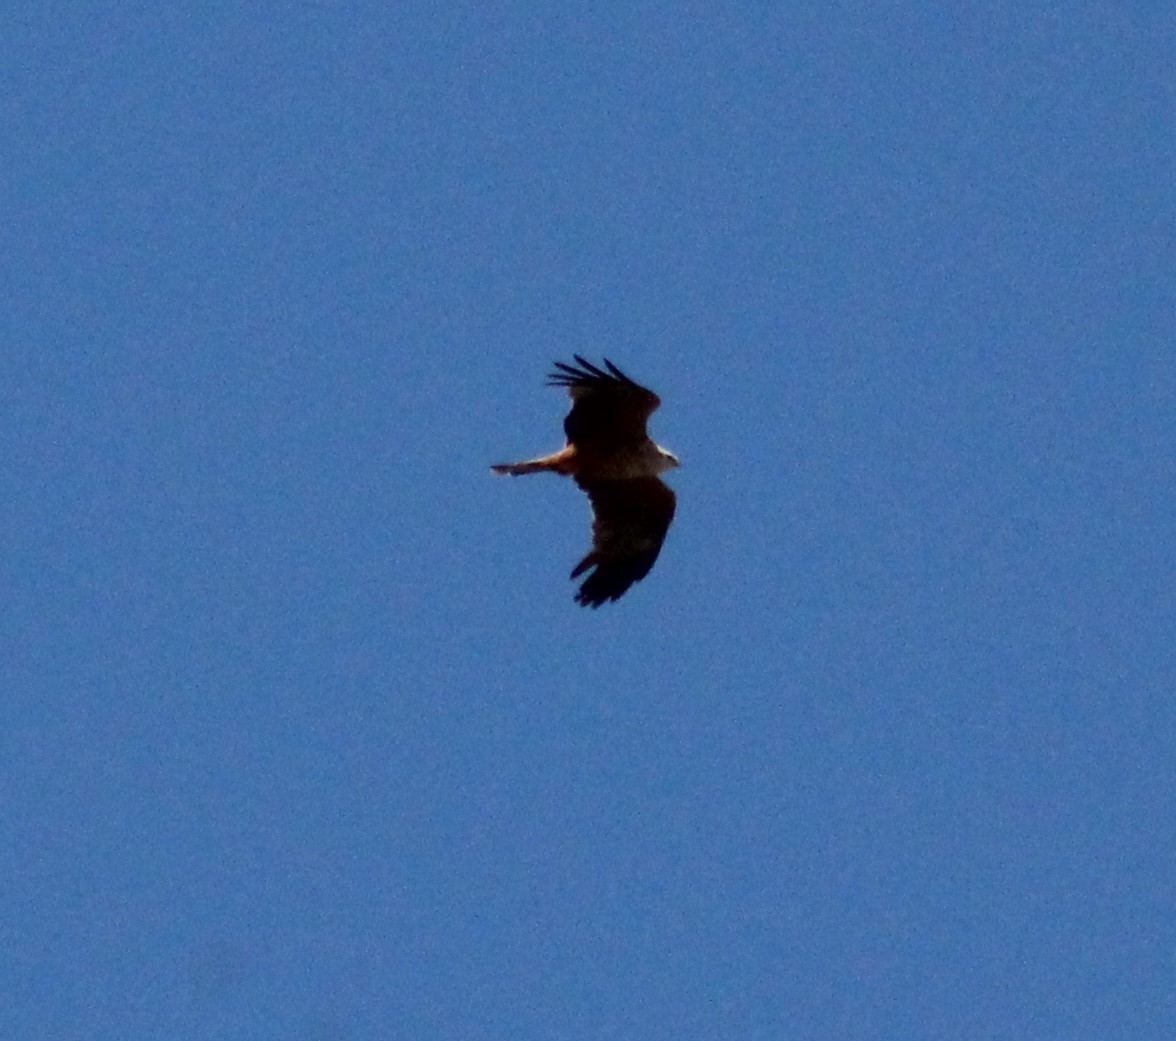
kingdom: Animalia
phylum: Chordata
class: Aves
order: Accipitriformes
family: Accipitridae
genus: Milvus
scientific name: Milvus milvus
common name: Red kite
